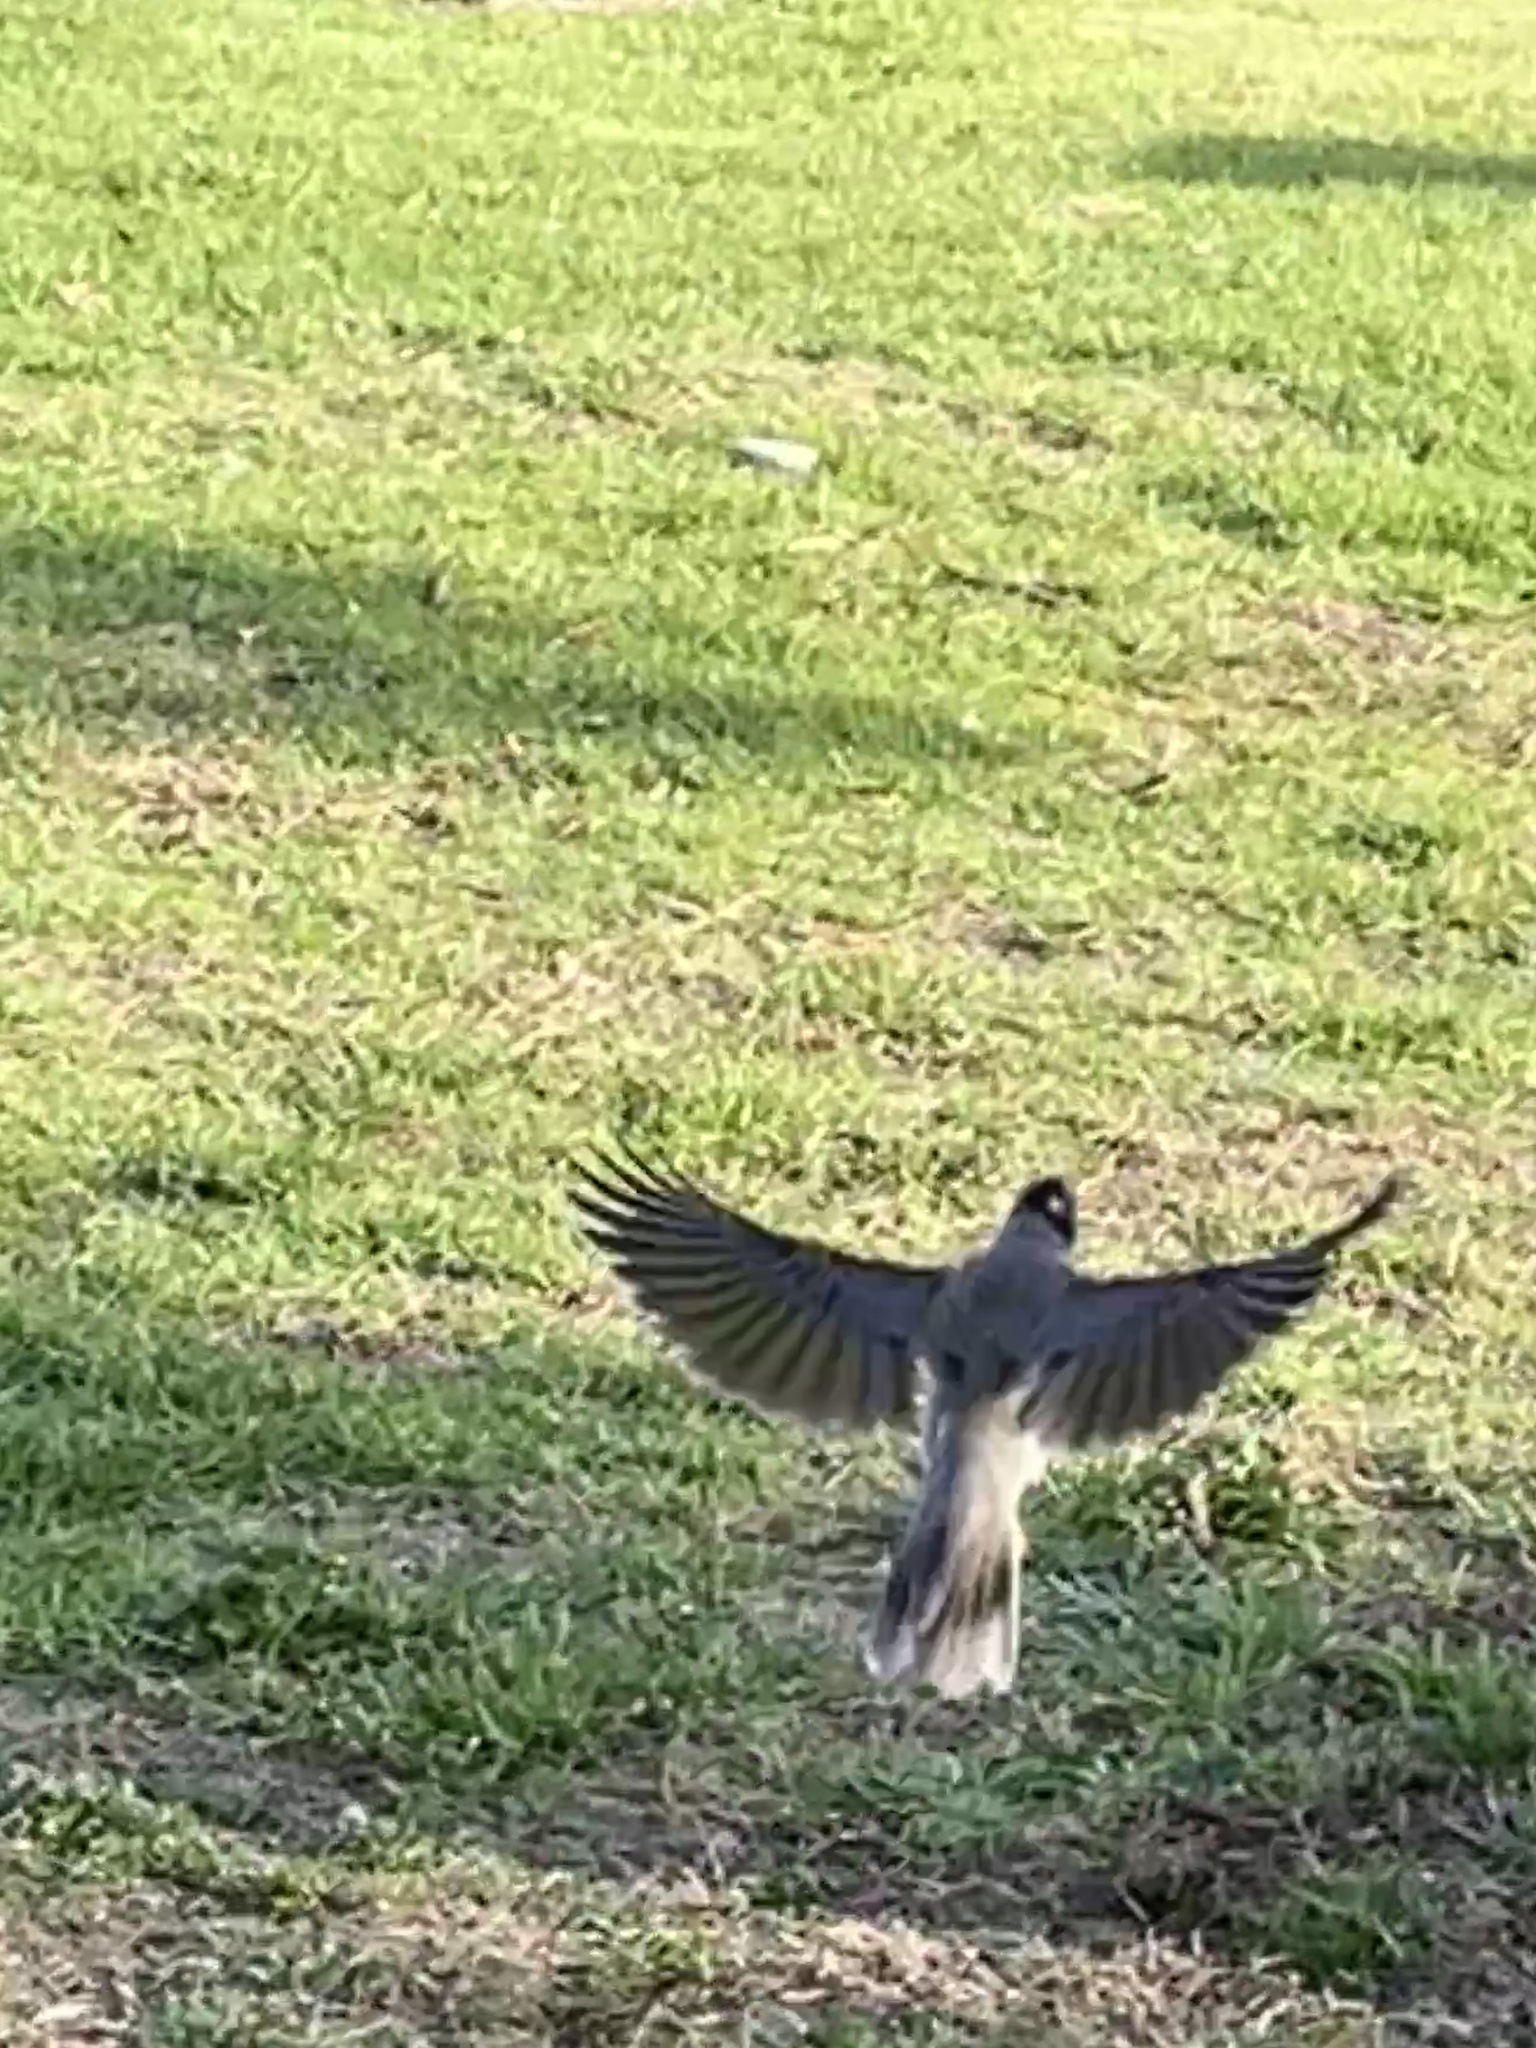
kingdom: Animalia
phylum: Chordata
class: Aves
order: Passeriformes
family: Meliphagidae
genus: Manorina
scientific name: Manorina melanocephala
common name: Noisy miner
